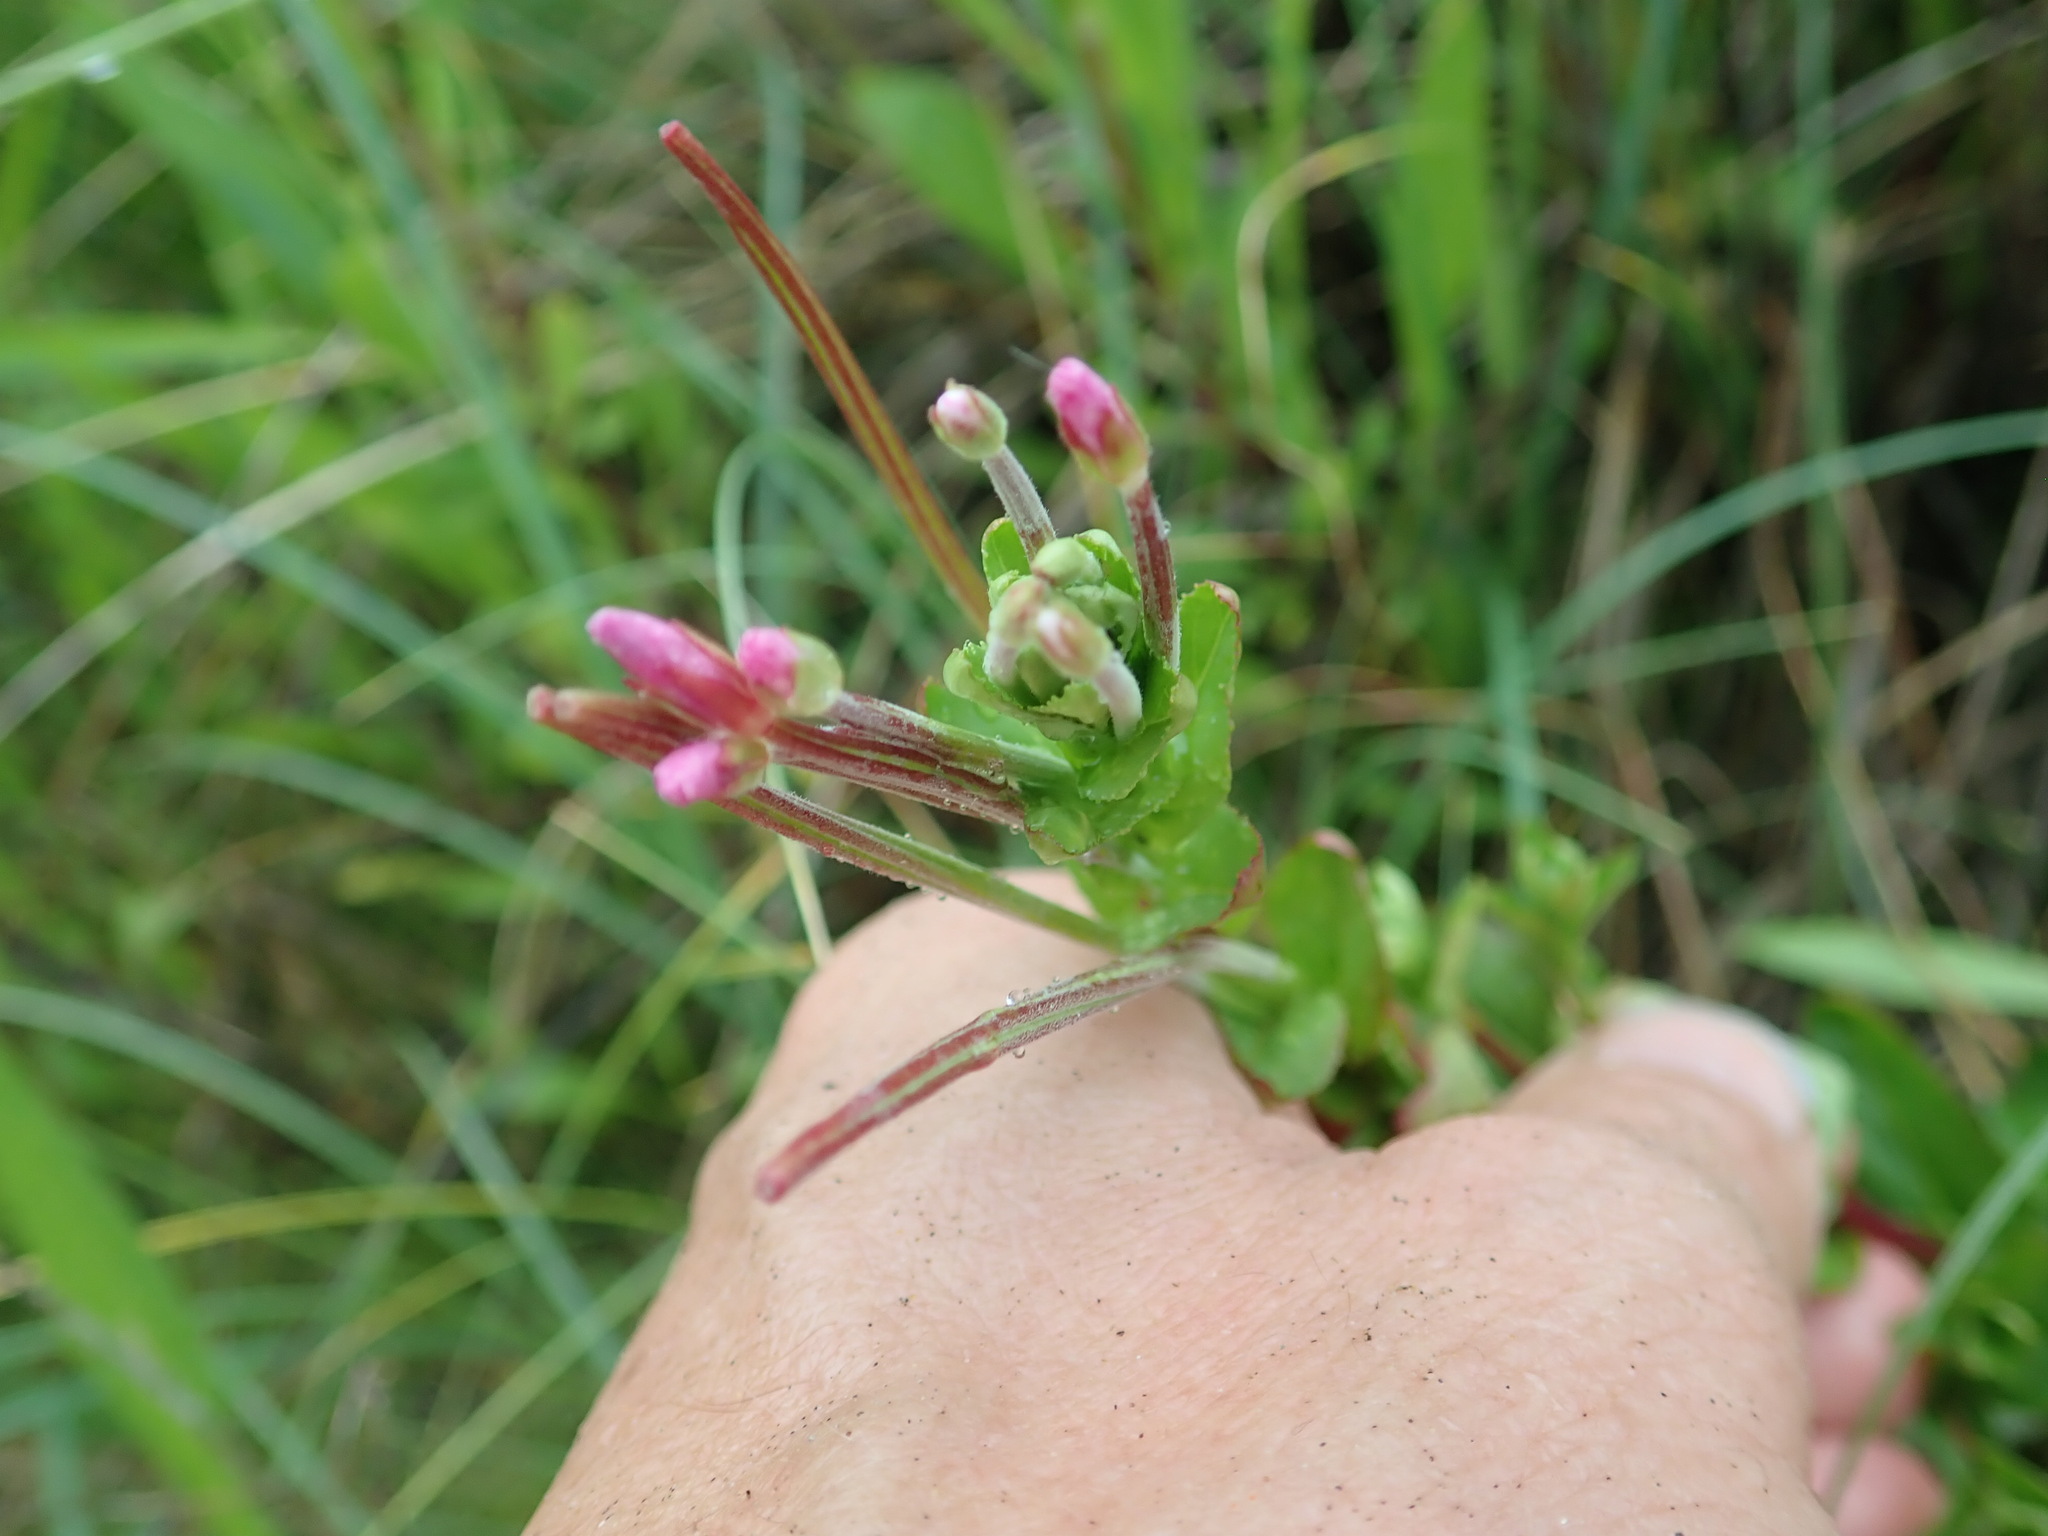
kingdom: Plantae
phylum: Tracheophyta
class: Magnoliopsida
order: Myrtales
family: Onagraceae
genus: Epilobium
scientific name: Epilobium billardiereanum
